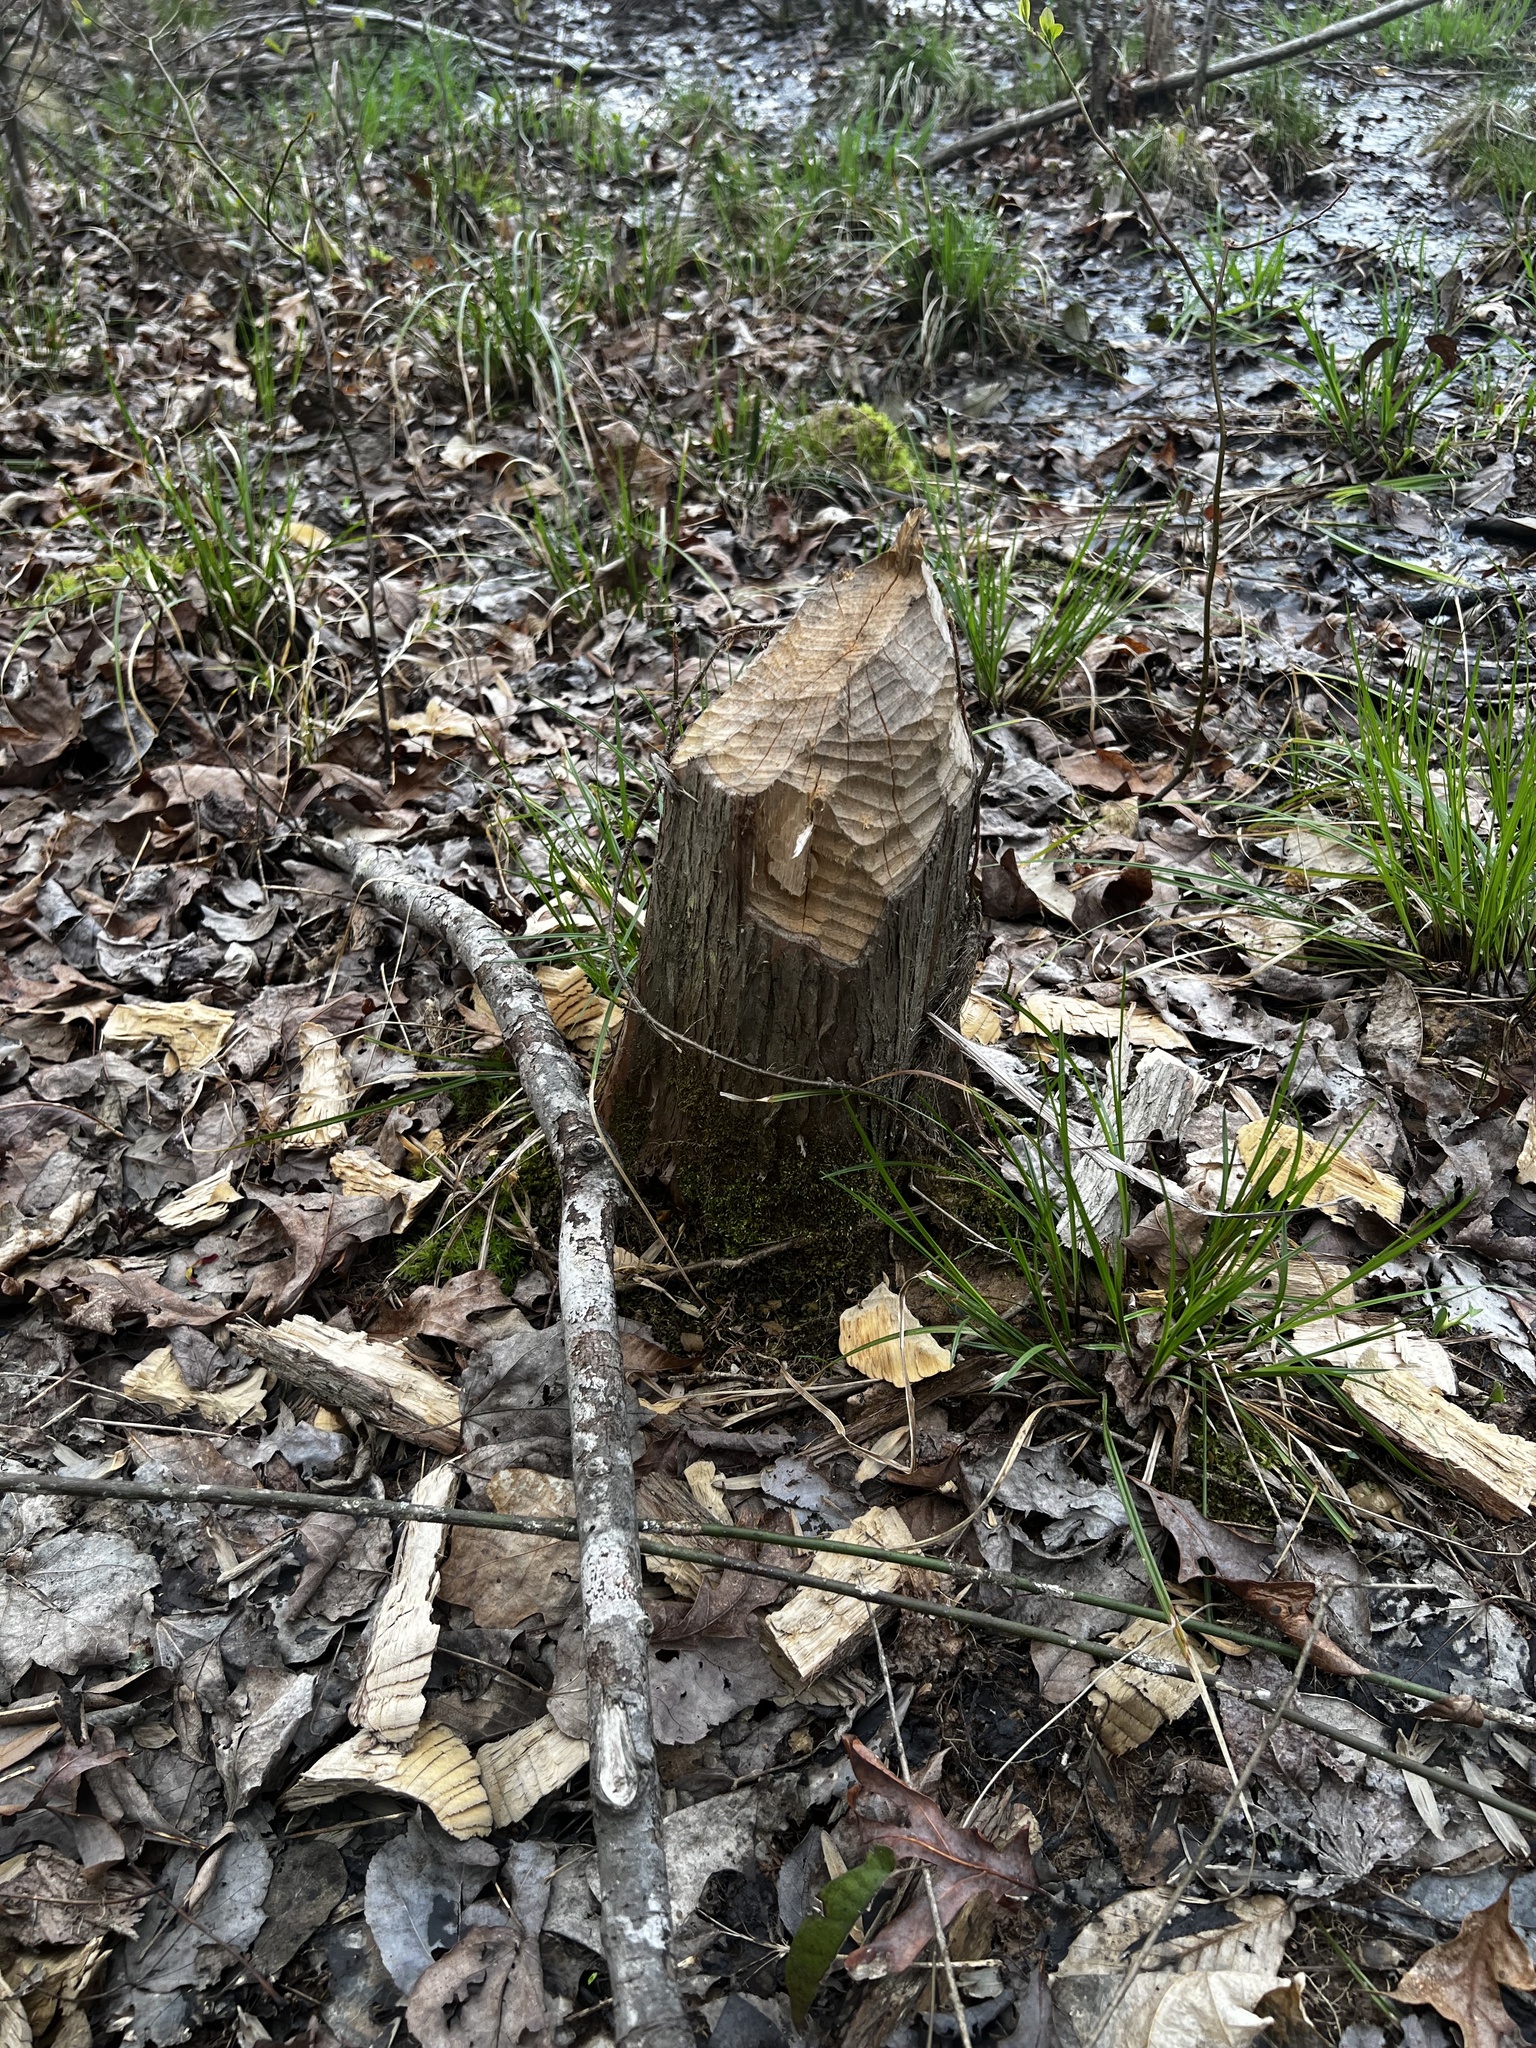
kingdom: Animalia
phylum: Chordata
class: Mammalia
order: Rodentia
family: Castoridae
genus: Castor
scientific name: Castor canadensis
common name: American beaver
